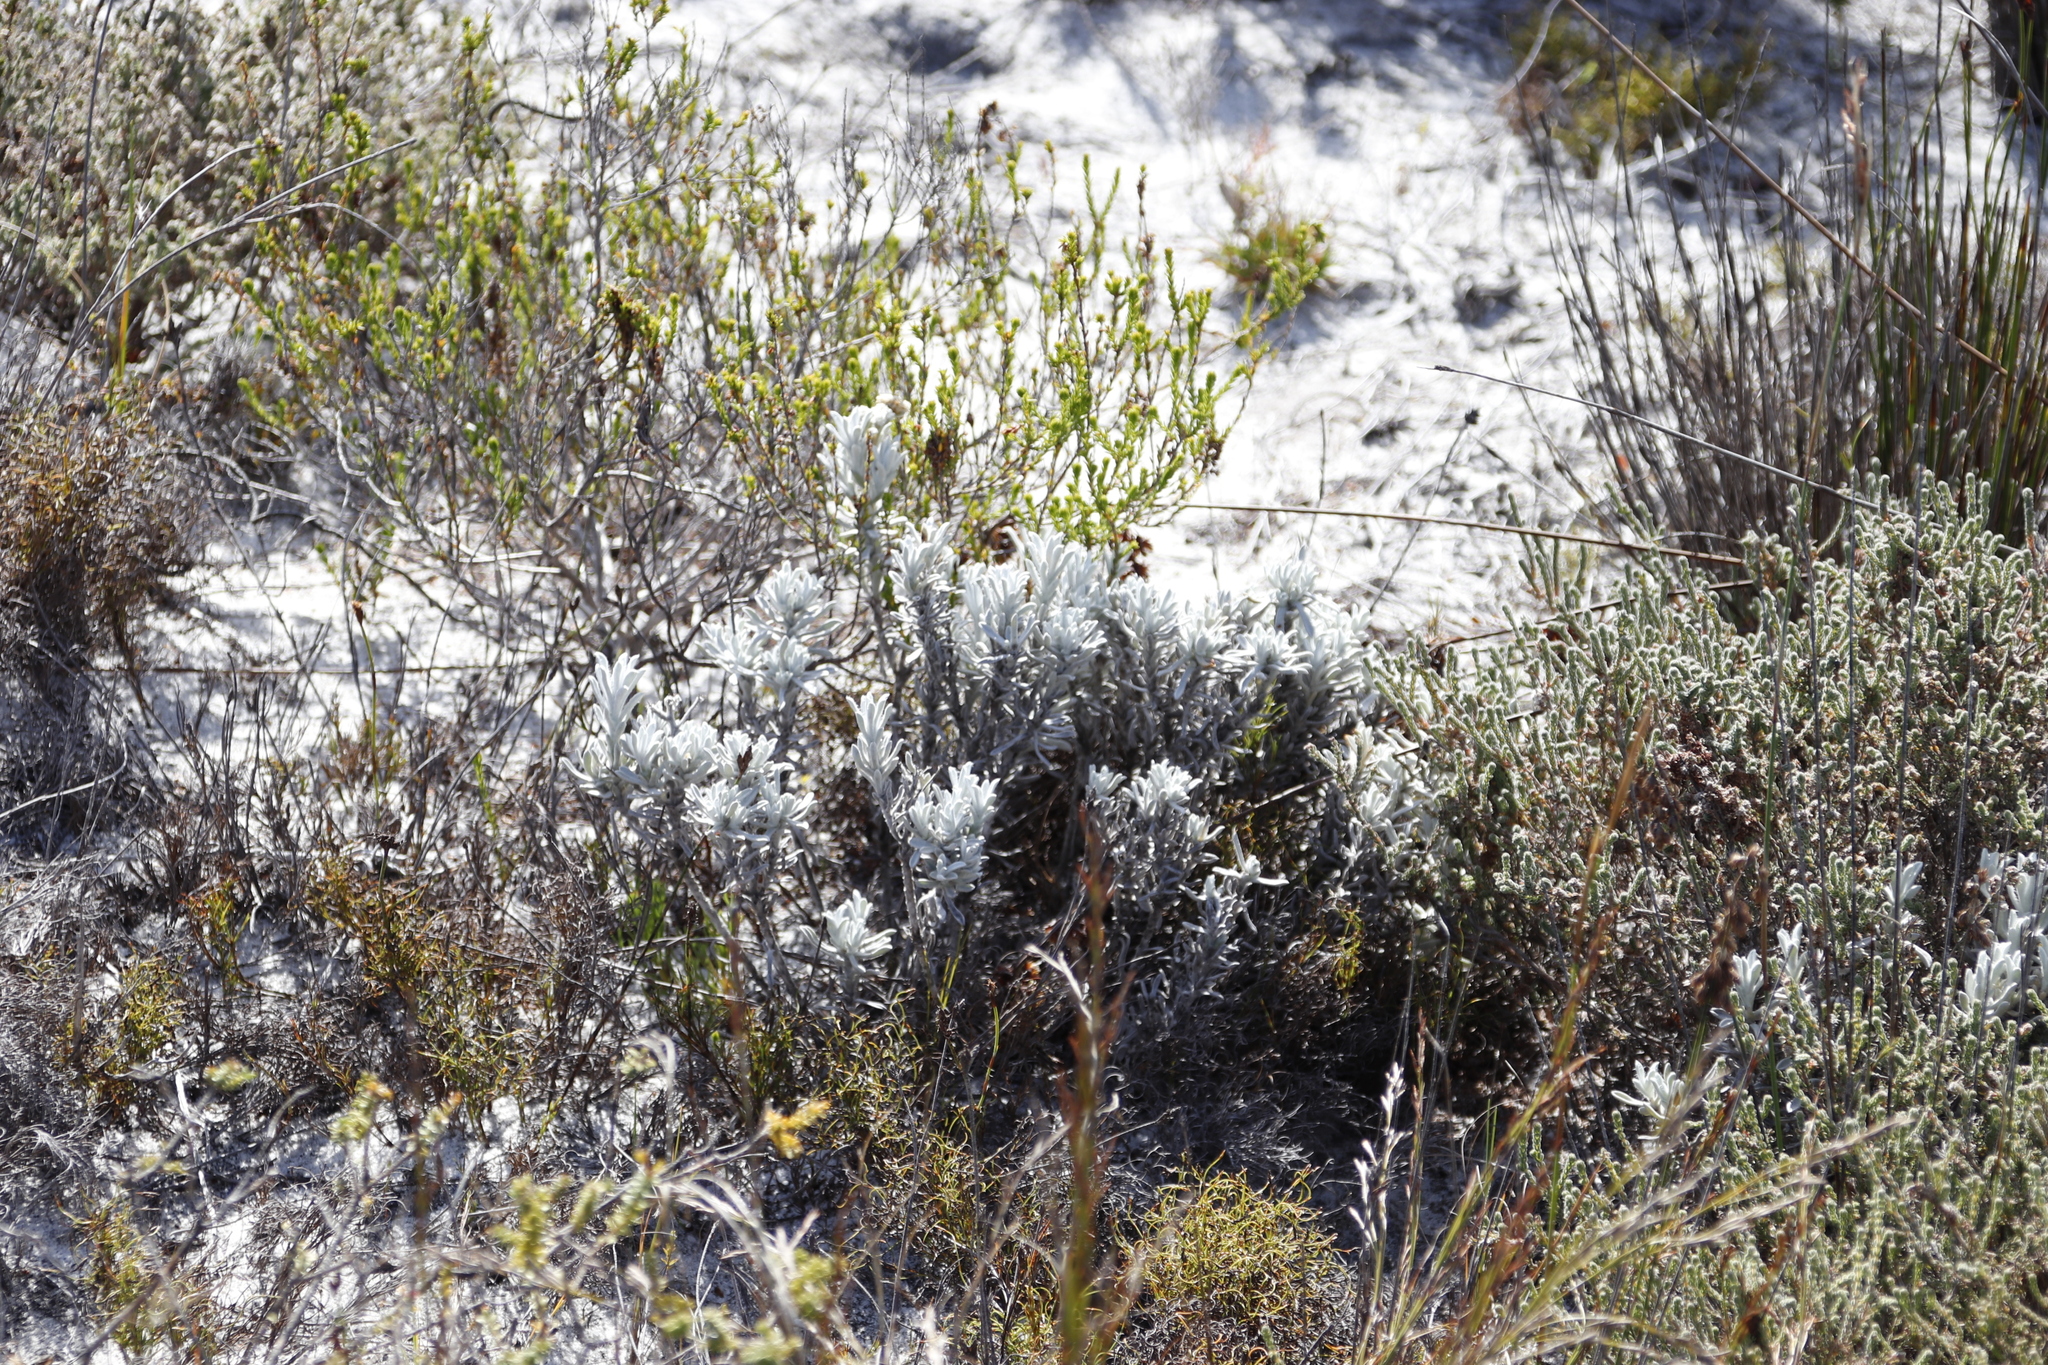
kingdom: Plantae
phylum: Tracheophyta
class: Magnoliopsida
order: Asterales
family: Asteraceae
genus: Petalacte
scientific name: Petalacte coronata
